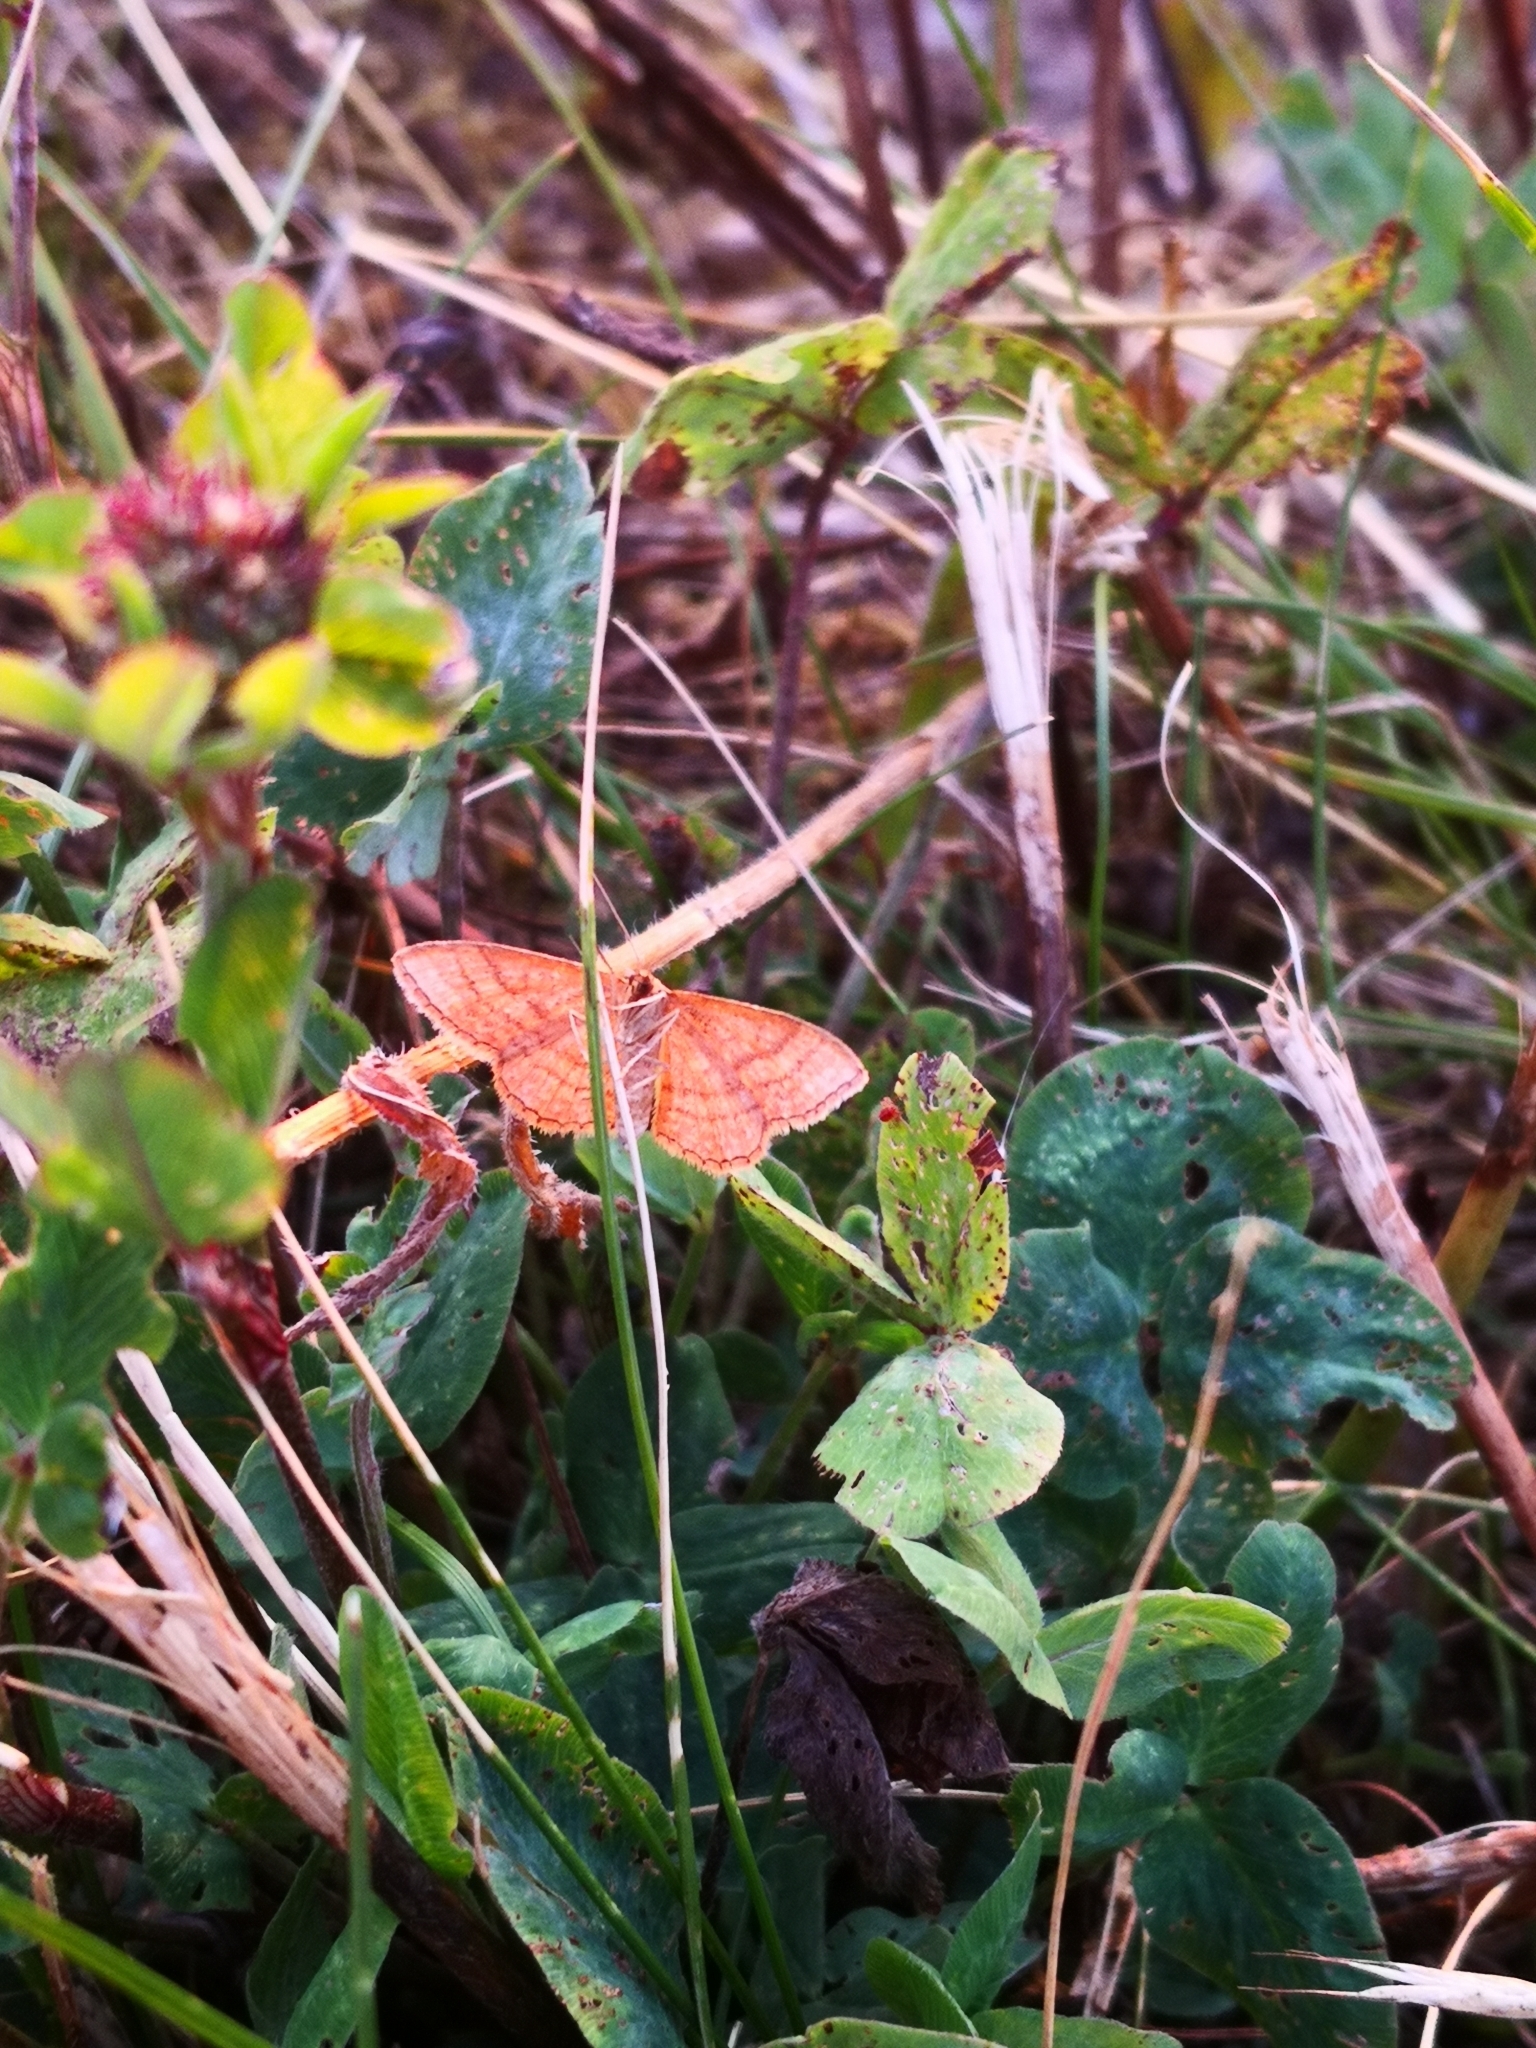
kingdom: Animalia
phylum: Arthropoda
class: Insecta
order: Lepidoptera
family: Geometridae
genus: Idaea
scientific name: Idaea ochrata
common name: Bright wave
